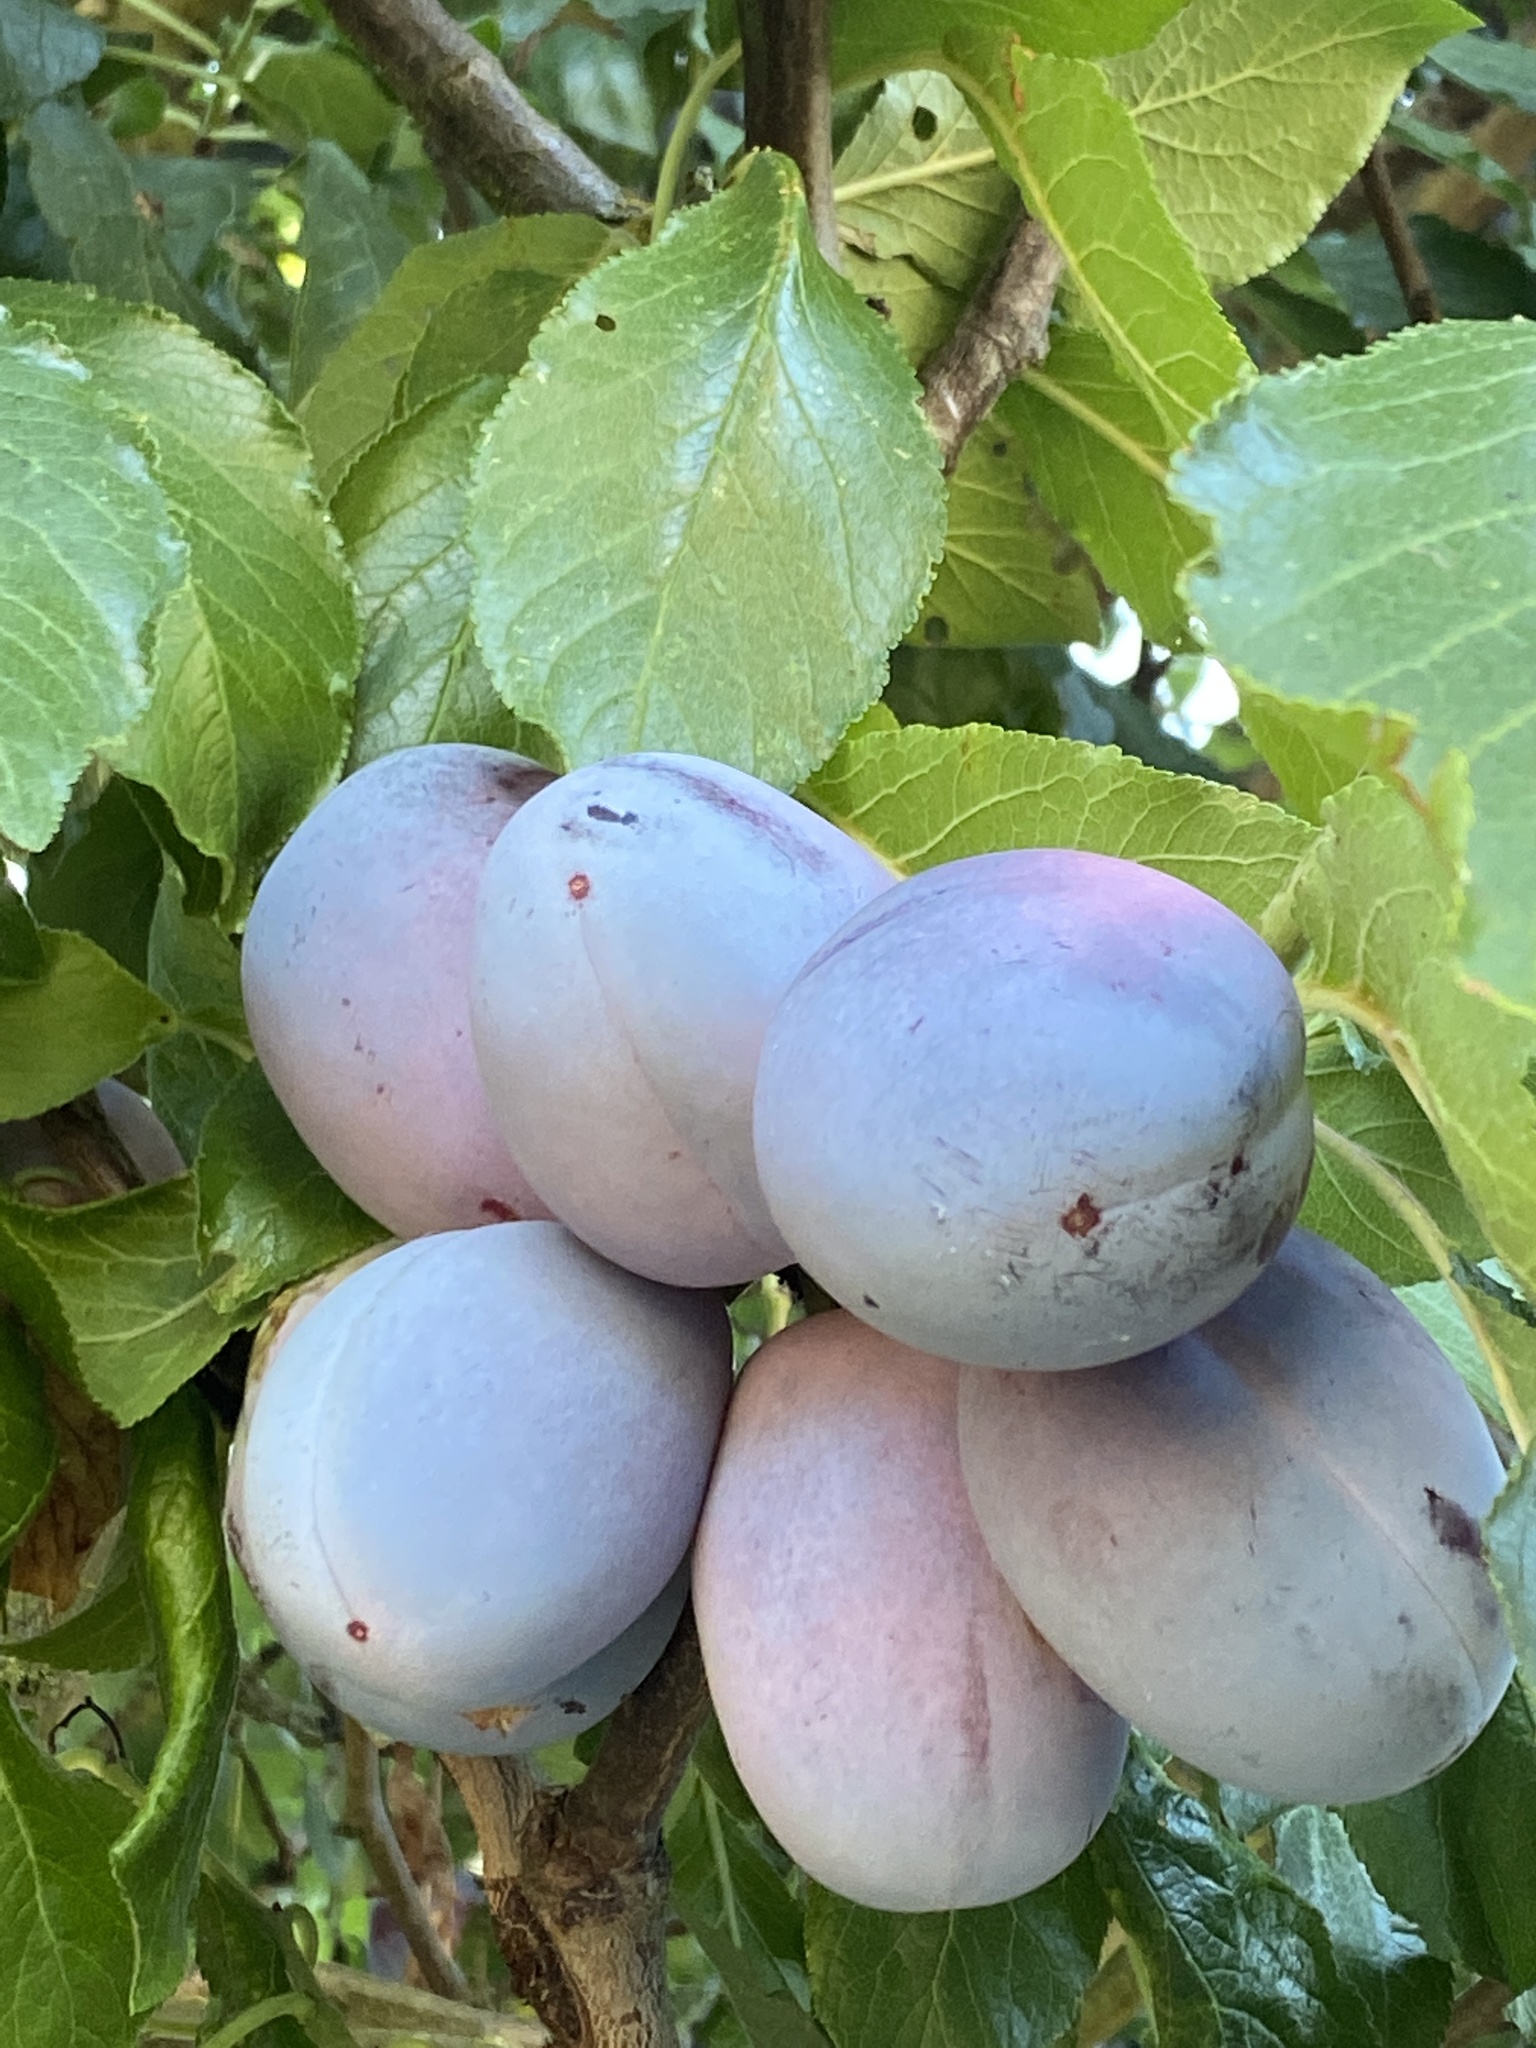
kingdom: Plantae
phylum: Tracheophyta
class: Magnoliopsida
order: Rosales
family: Rosaceae
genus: Prunus
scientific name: Prunus domestica
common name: Wild plum
